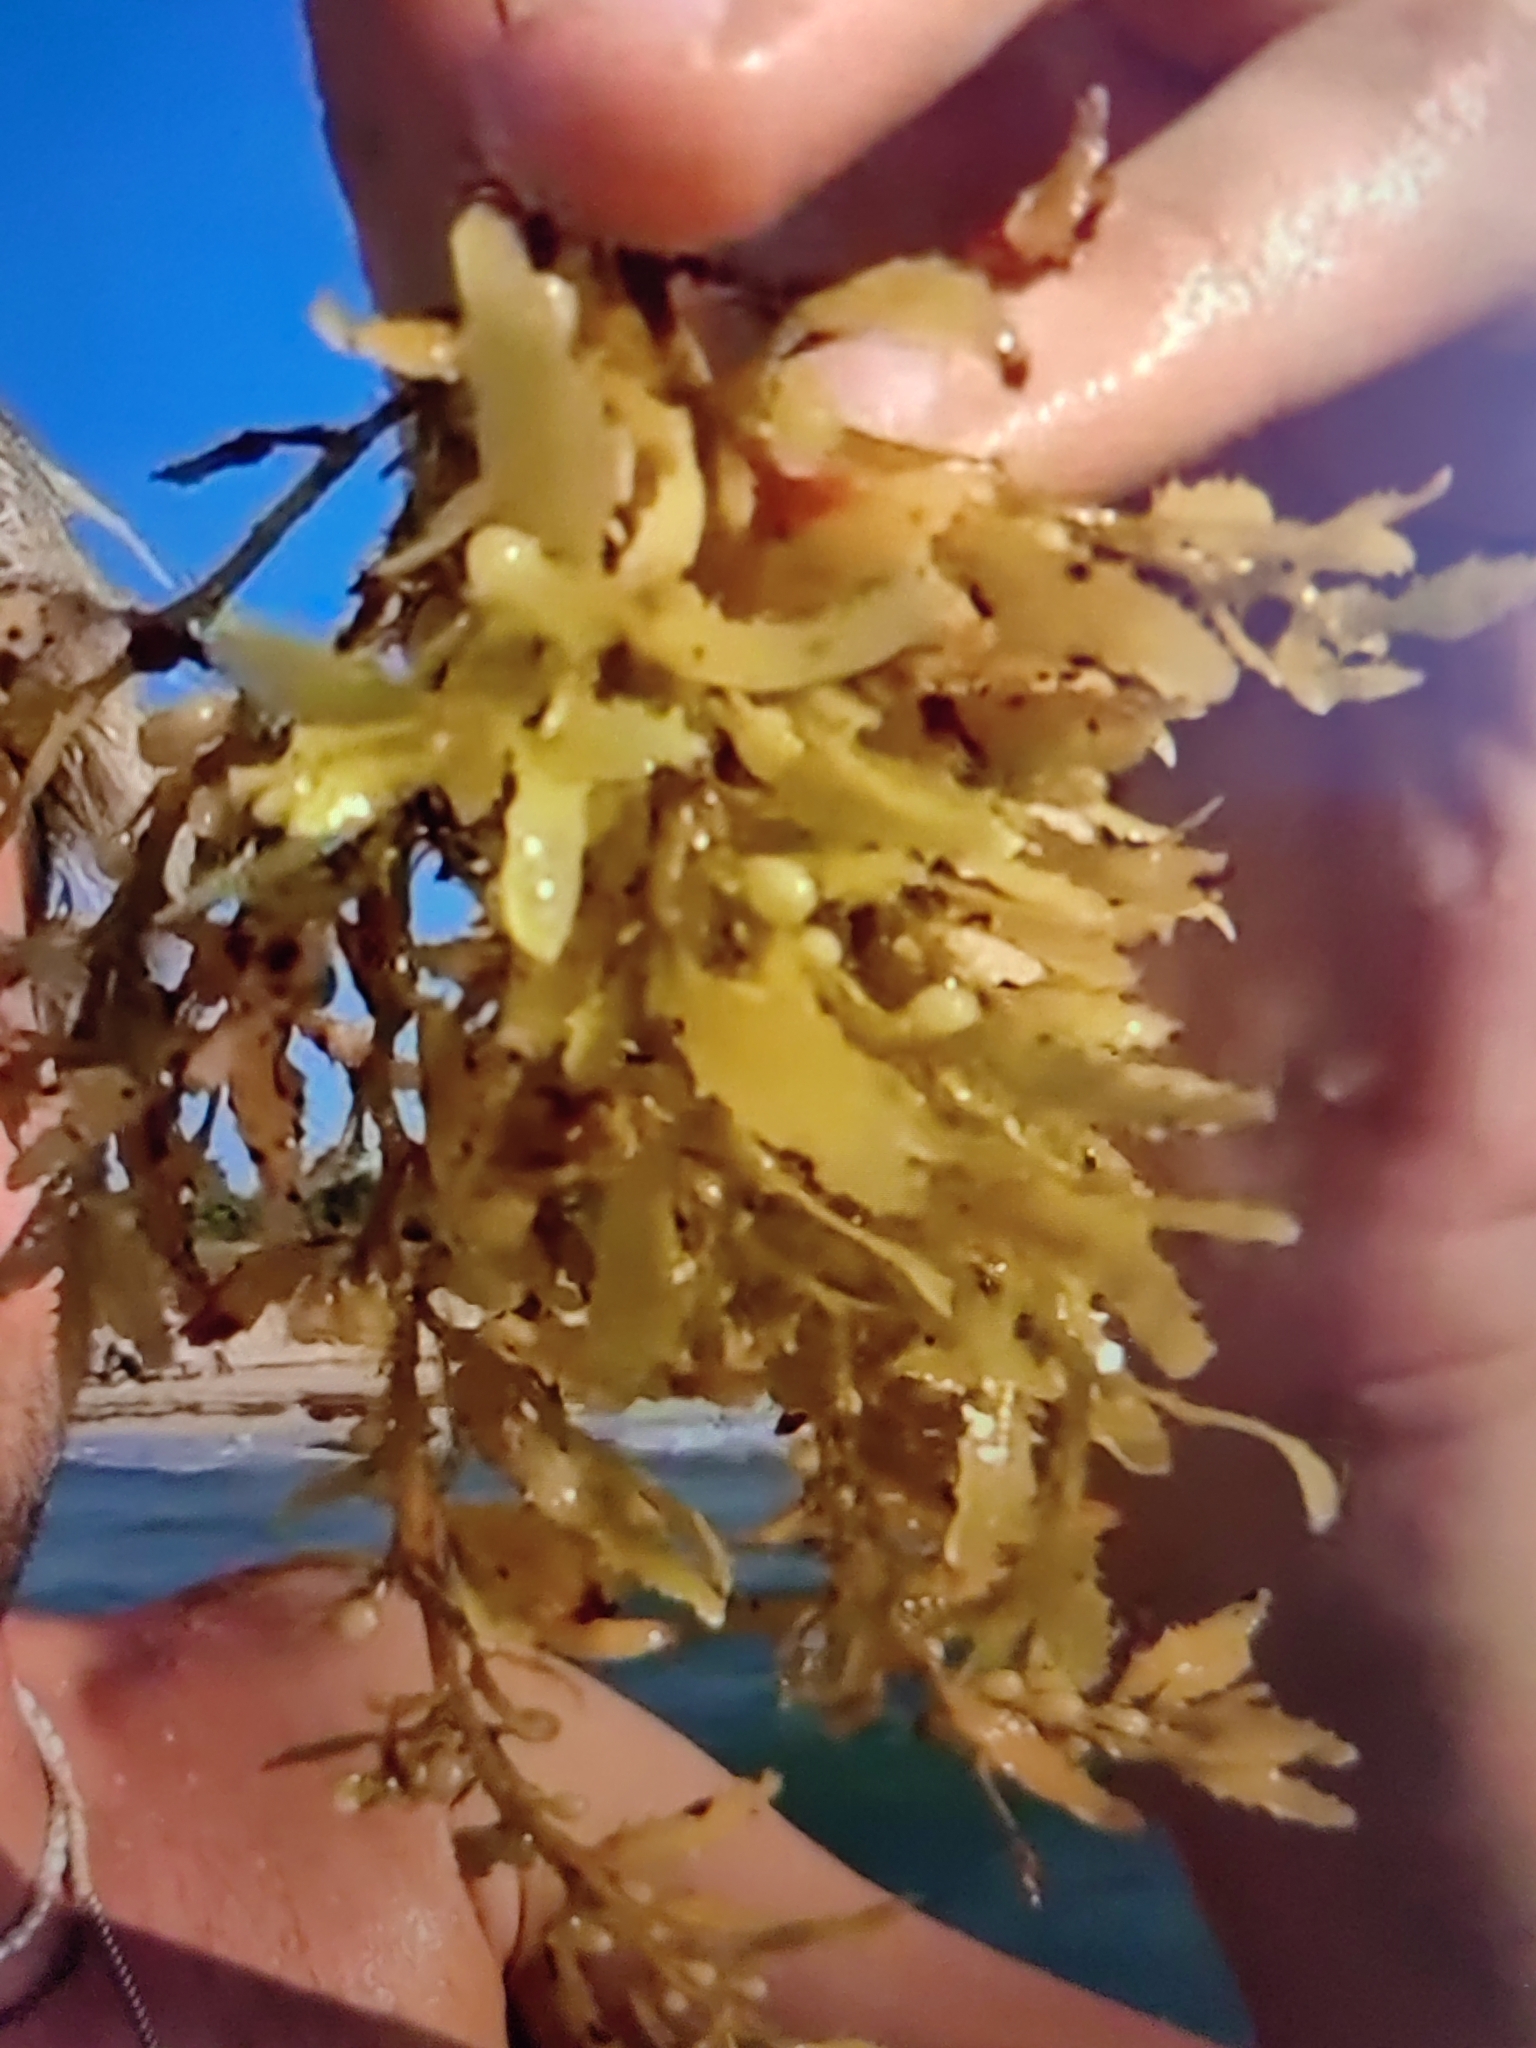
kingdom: Chromista
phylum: Ochrophyta
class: Phaeophyceae
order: Fucales
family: Sargassaceae
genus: Sargassum
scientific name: Sargassum natans
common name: Sargasso weed
